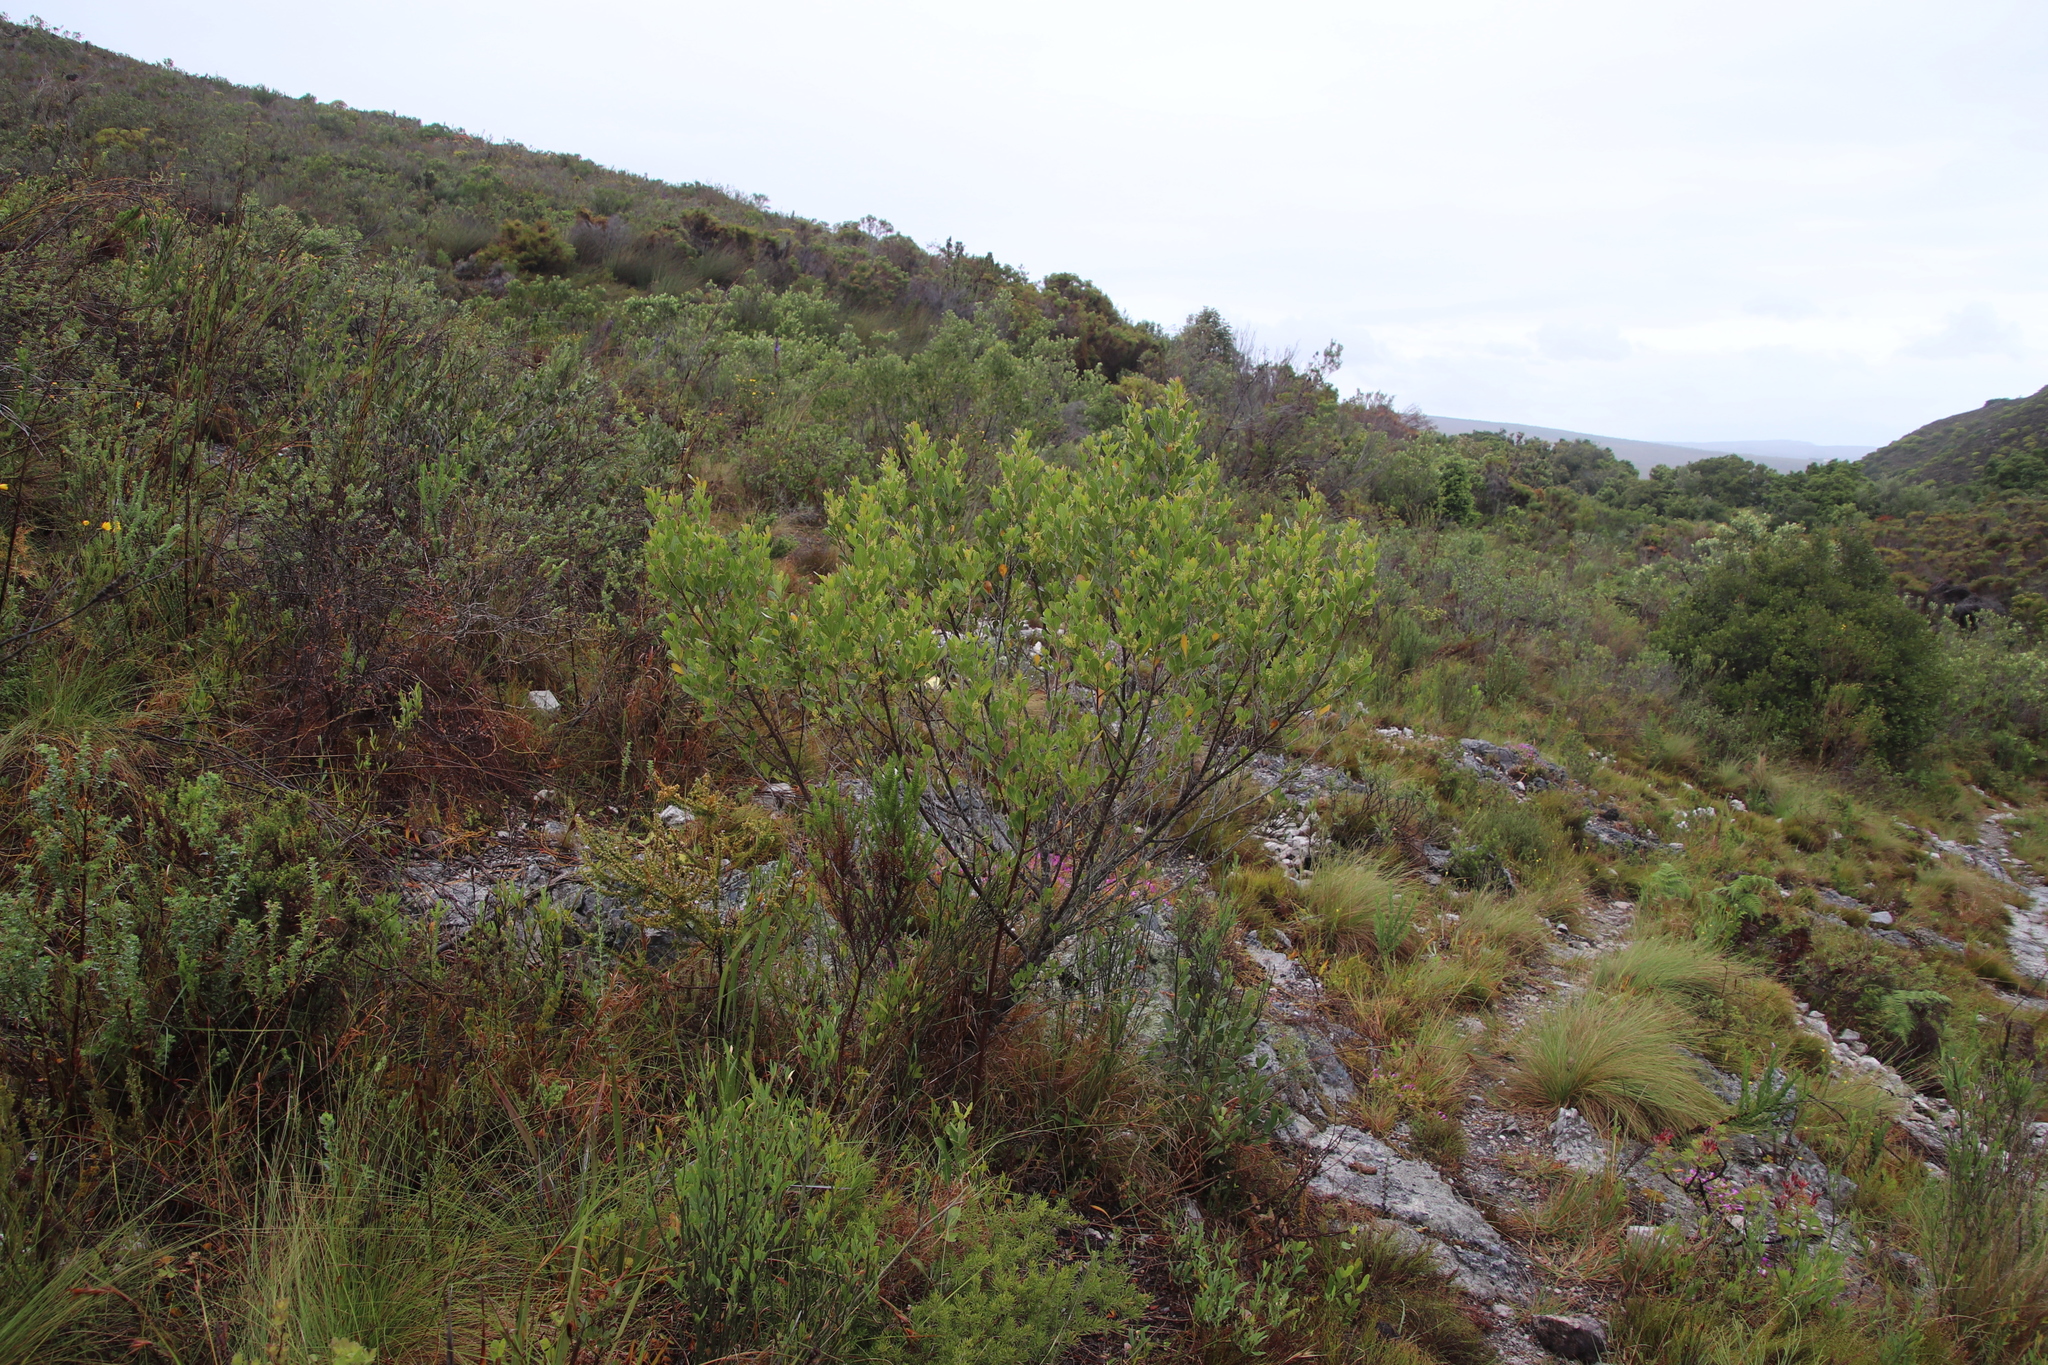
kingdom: Plantae
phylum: Tracheophyta
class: Magnoliopsida
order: Sapindales
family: Anacardiaceae
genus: Searsia
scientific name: Searsia lucida
